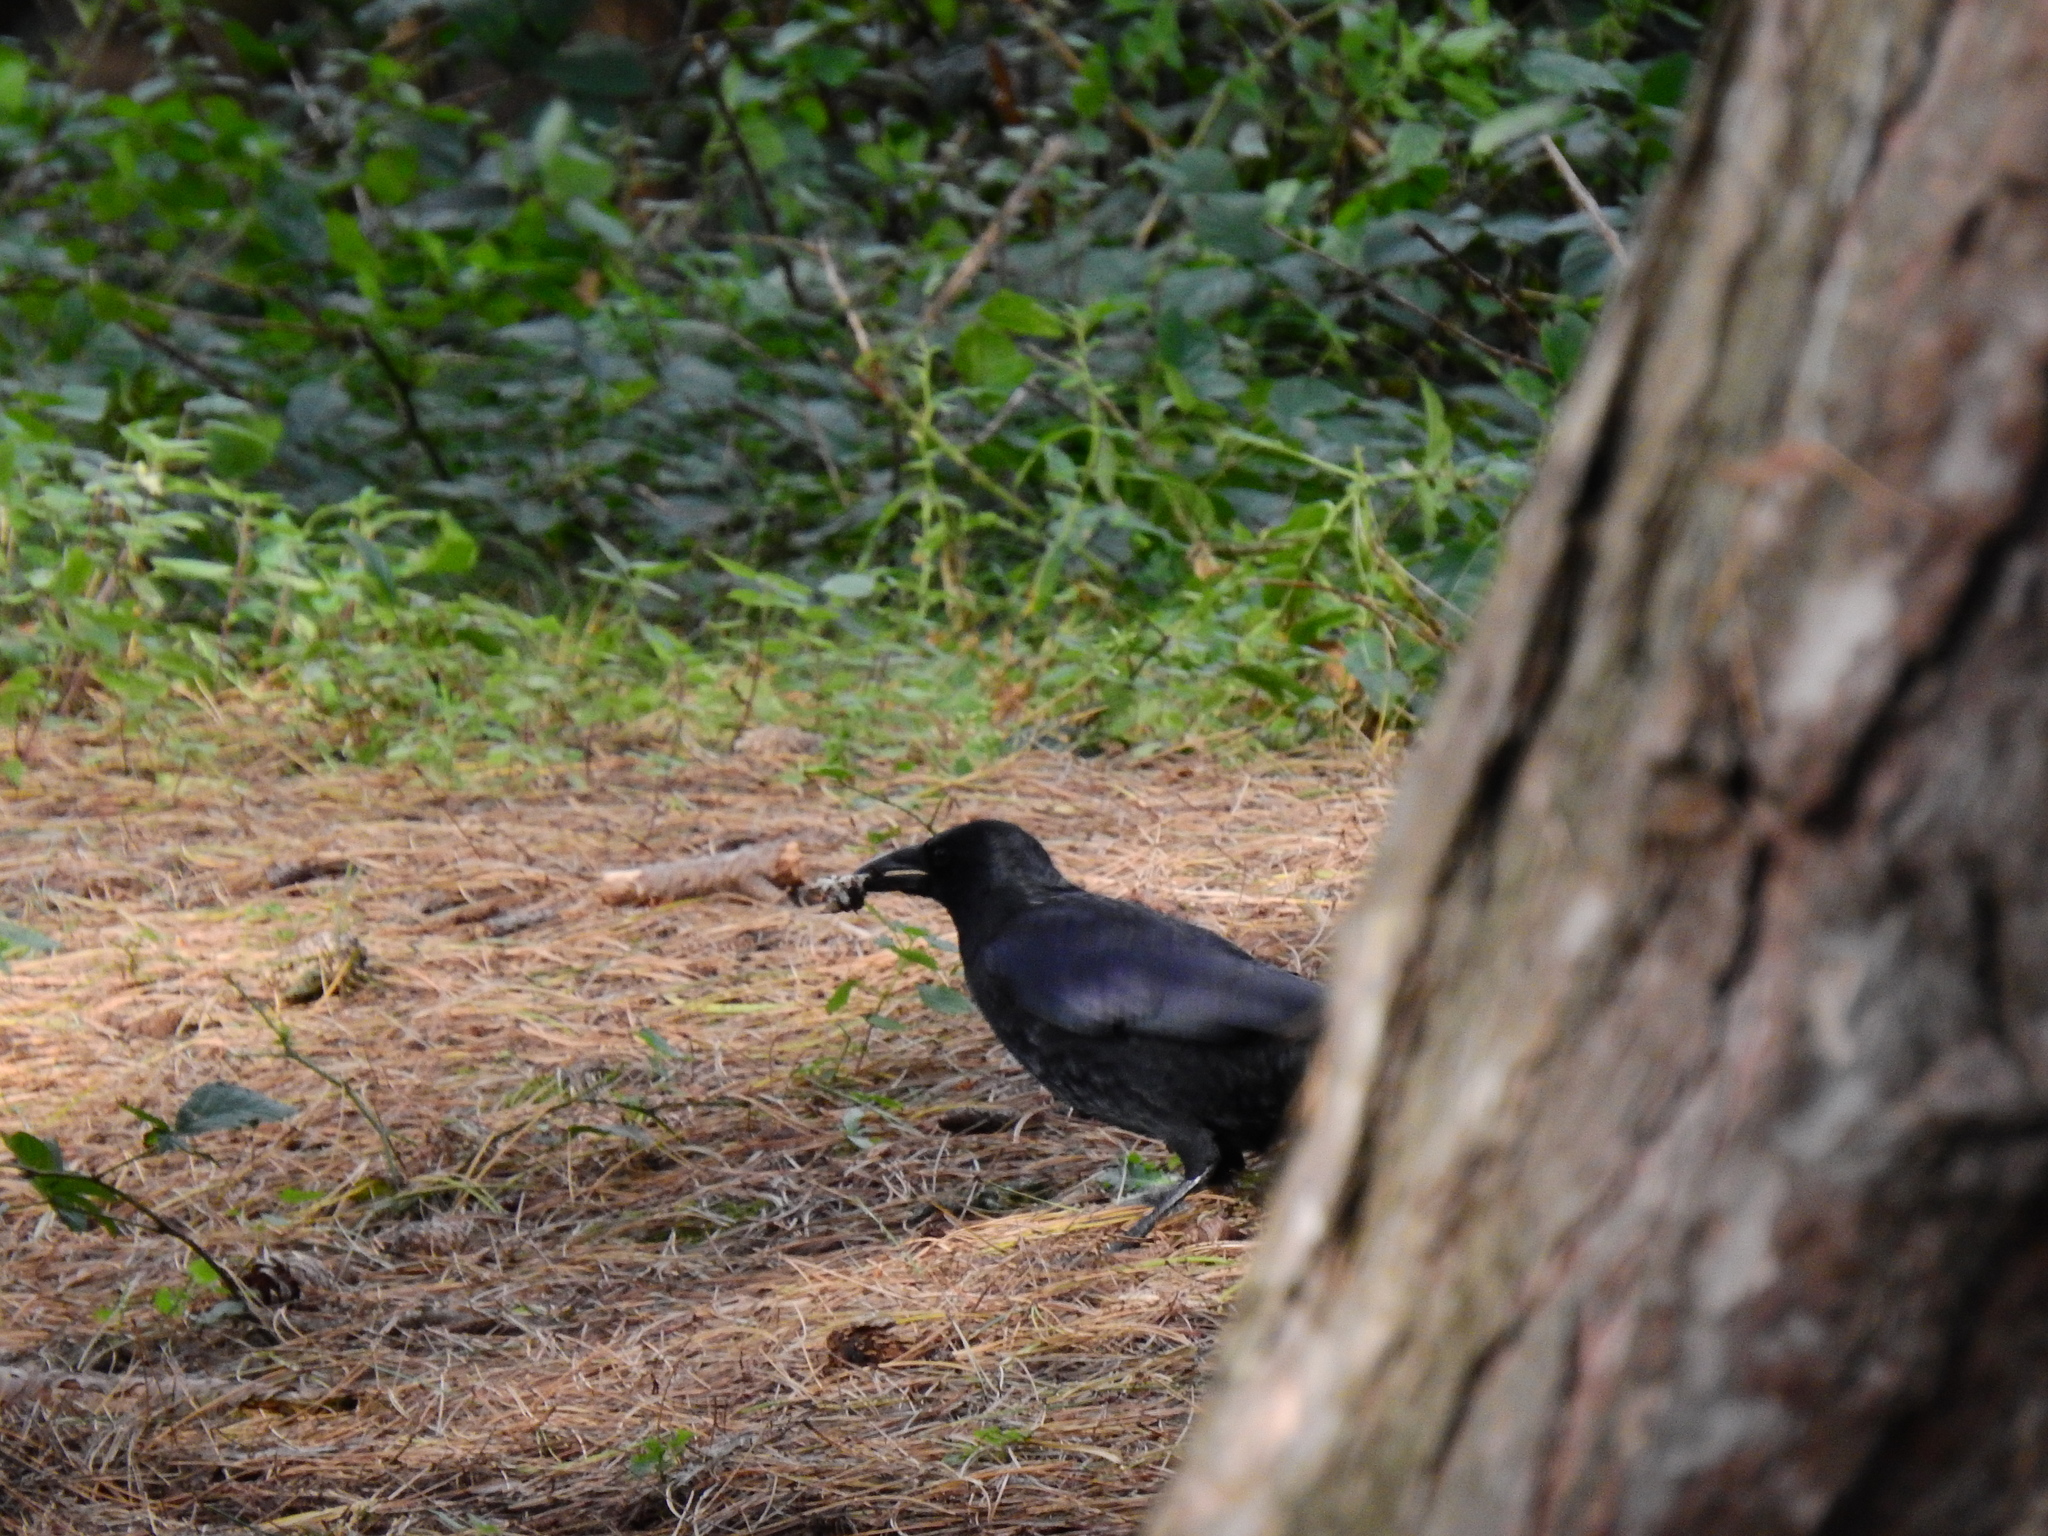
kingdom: Animalia
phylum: Chordata
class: Aves
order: Passeriformes
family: Corvidae
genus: Corvus
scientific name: Corvus corone
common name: Carrion crow
